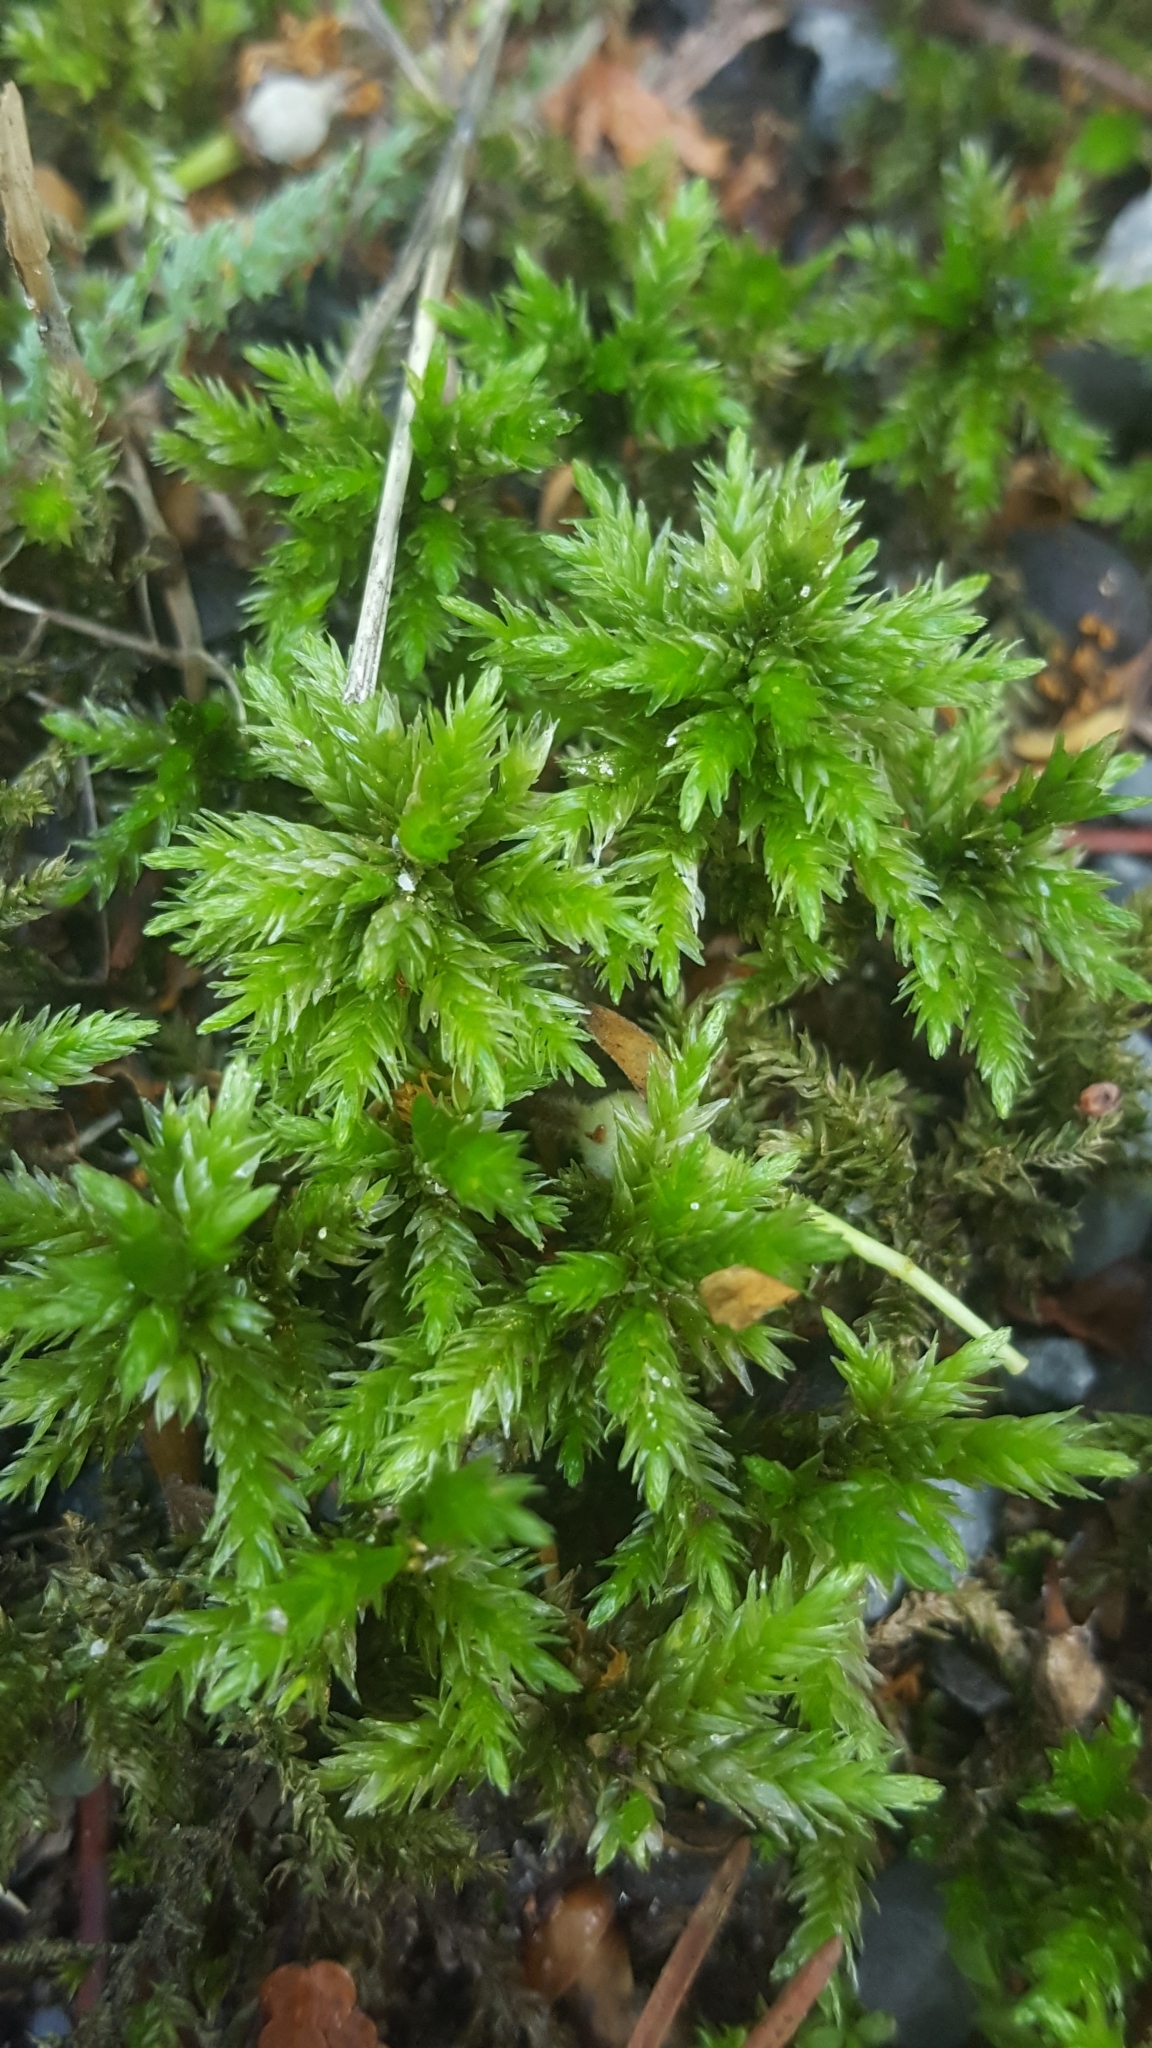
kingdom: Plantae
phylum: Bryophyta
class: Bryopsida
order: Hypnales
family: Climaciaceae
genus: Climacium
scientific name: Climacium dendroides
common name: Northern tree moss
